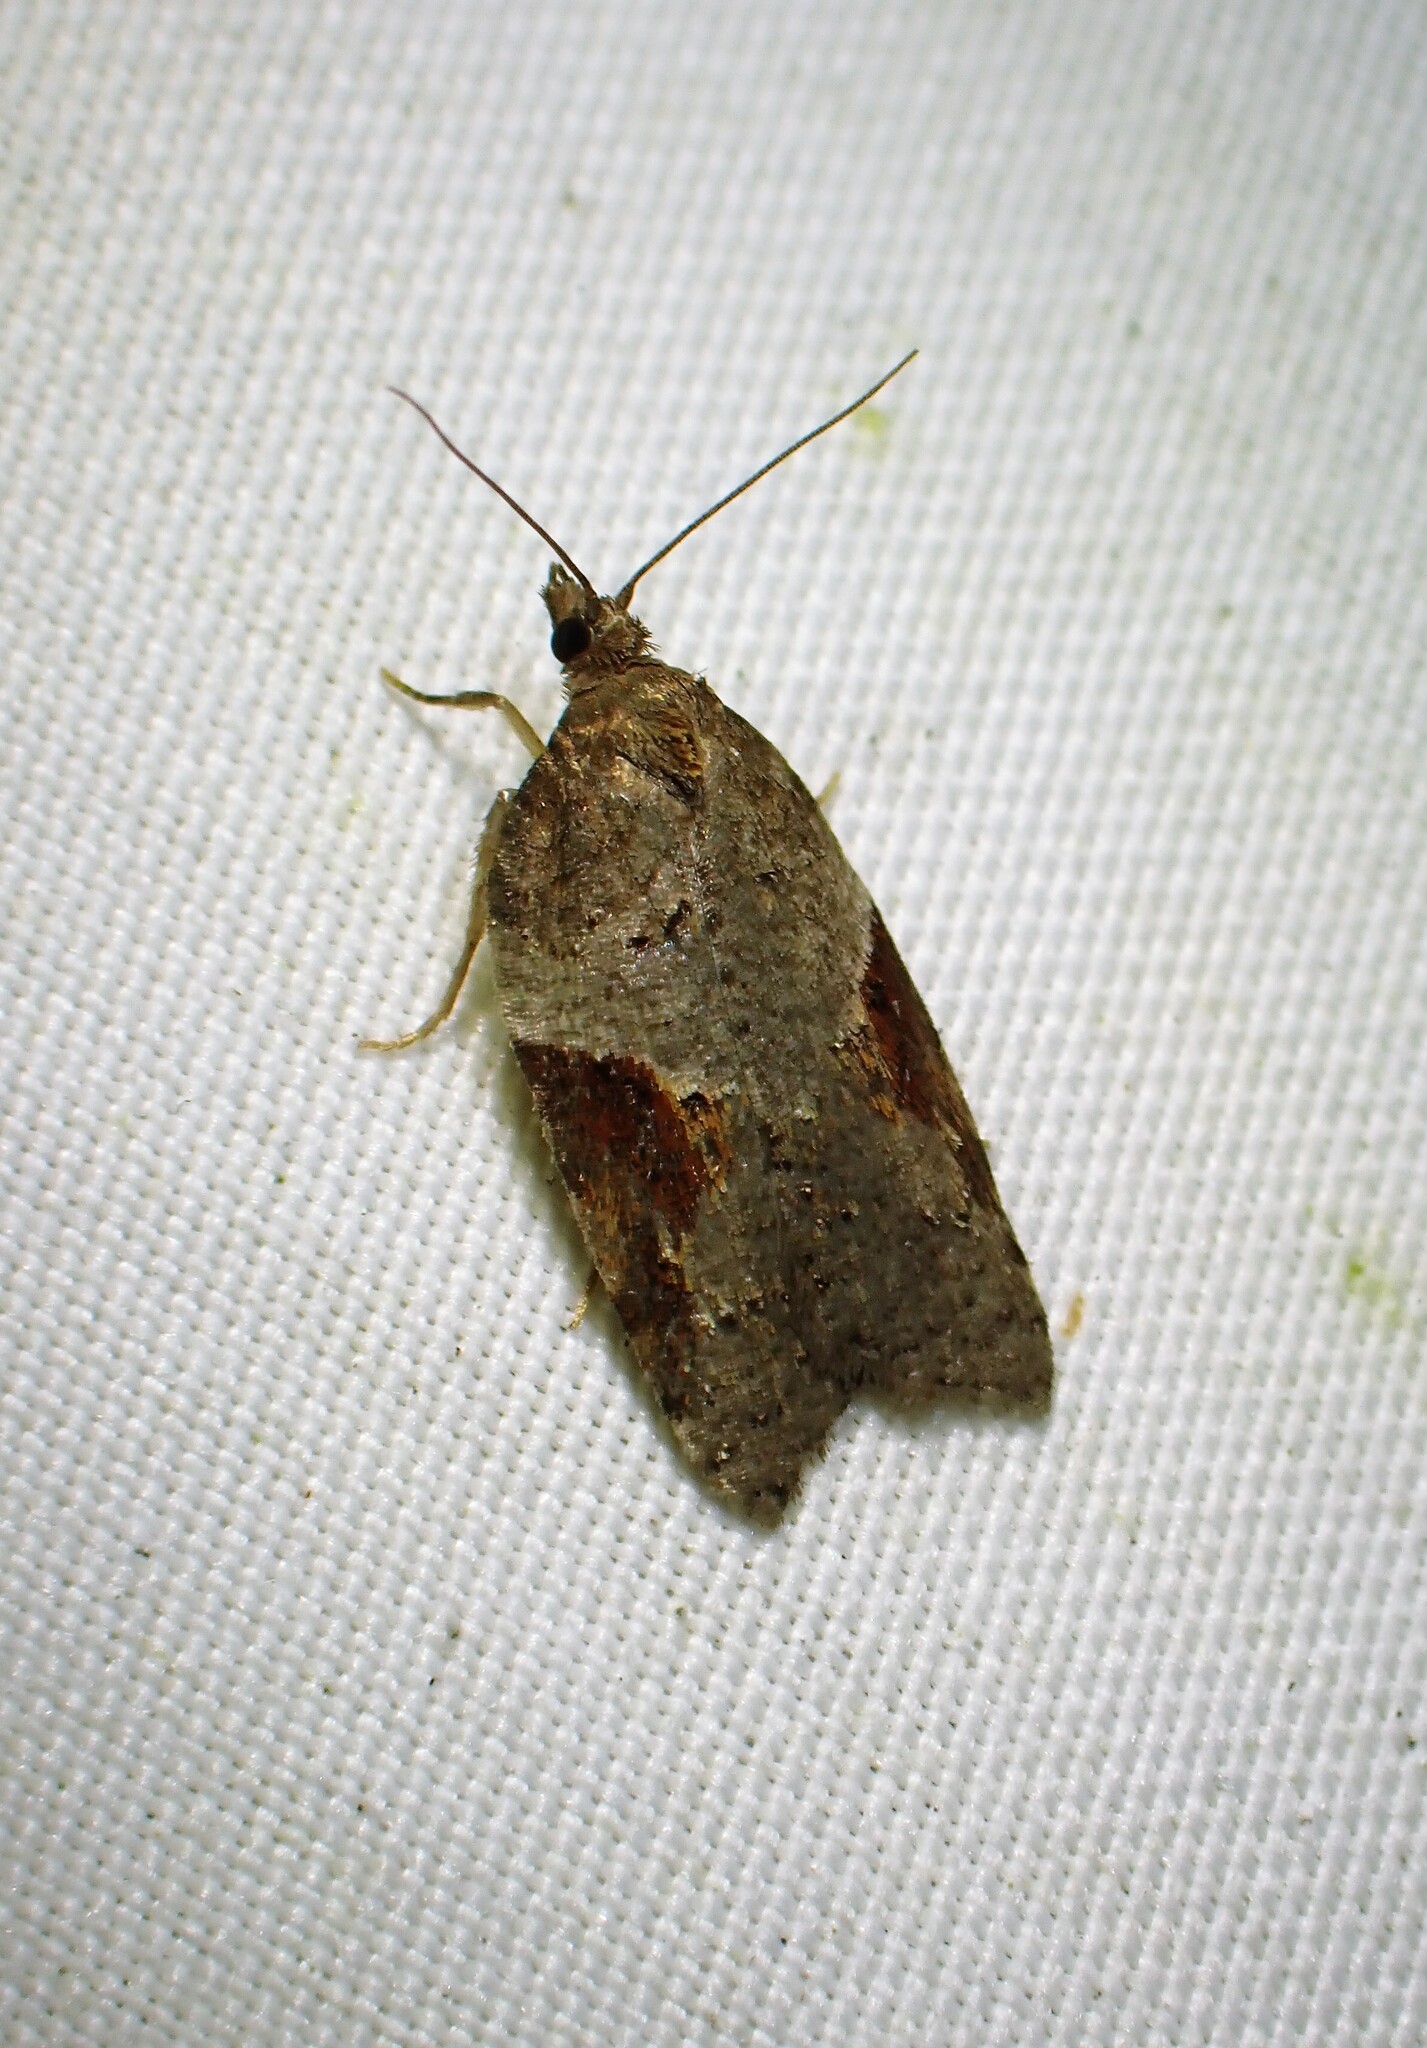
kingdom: Animalia
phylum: Arthropoda
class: Insecta
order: Lepidoptera
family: Tortricidae
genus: Acleris
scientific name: Acleris macdunnoughi
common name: Macdunnough's acleris
